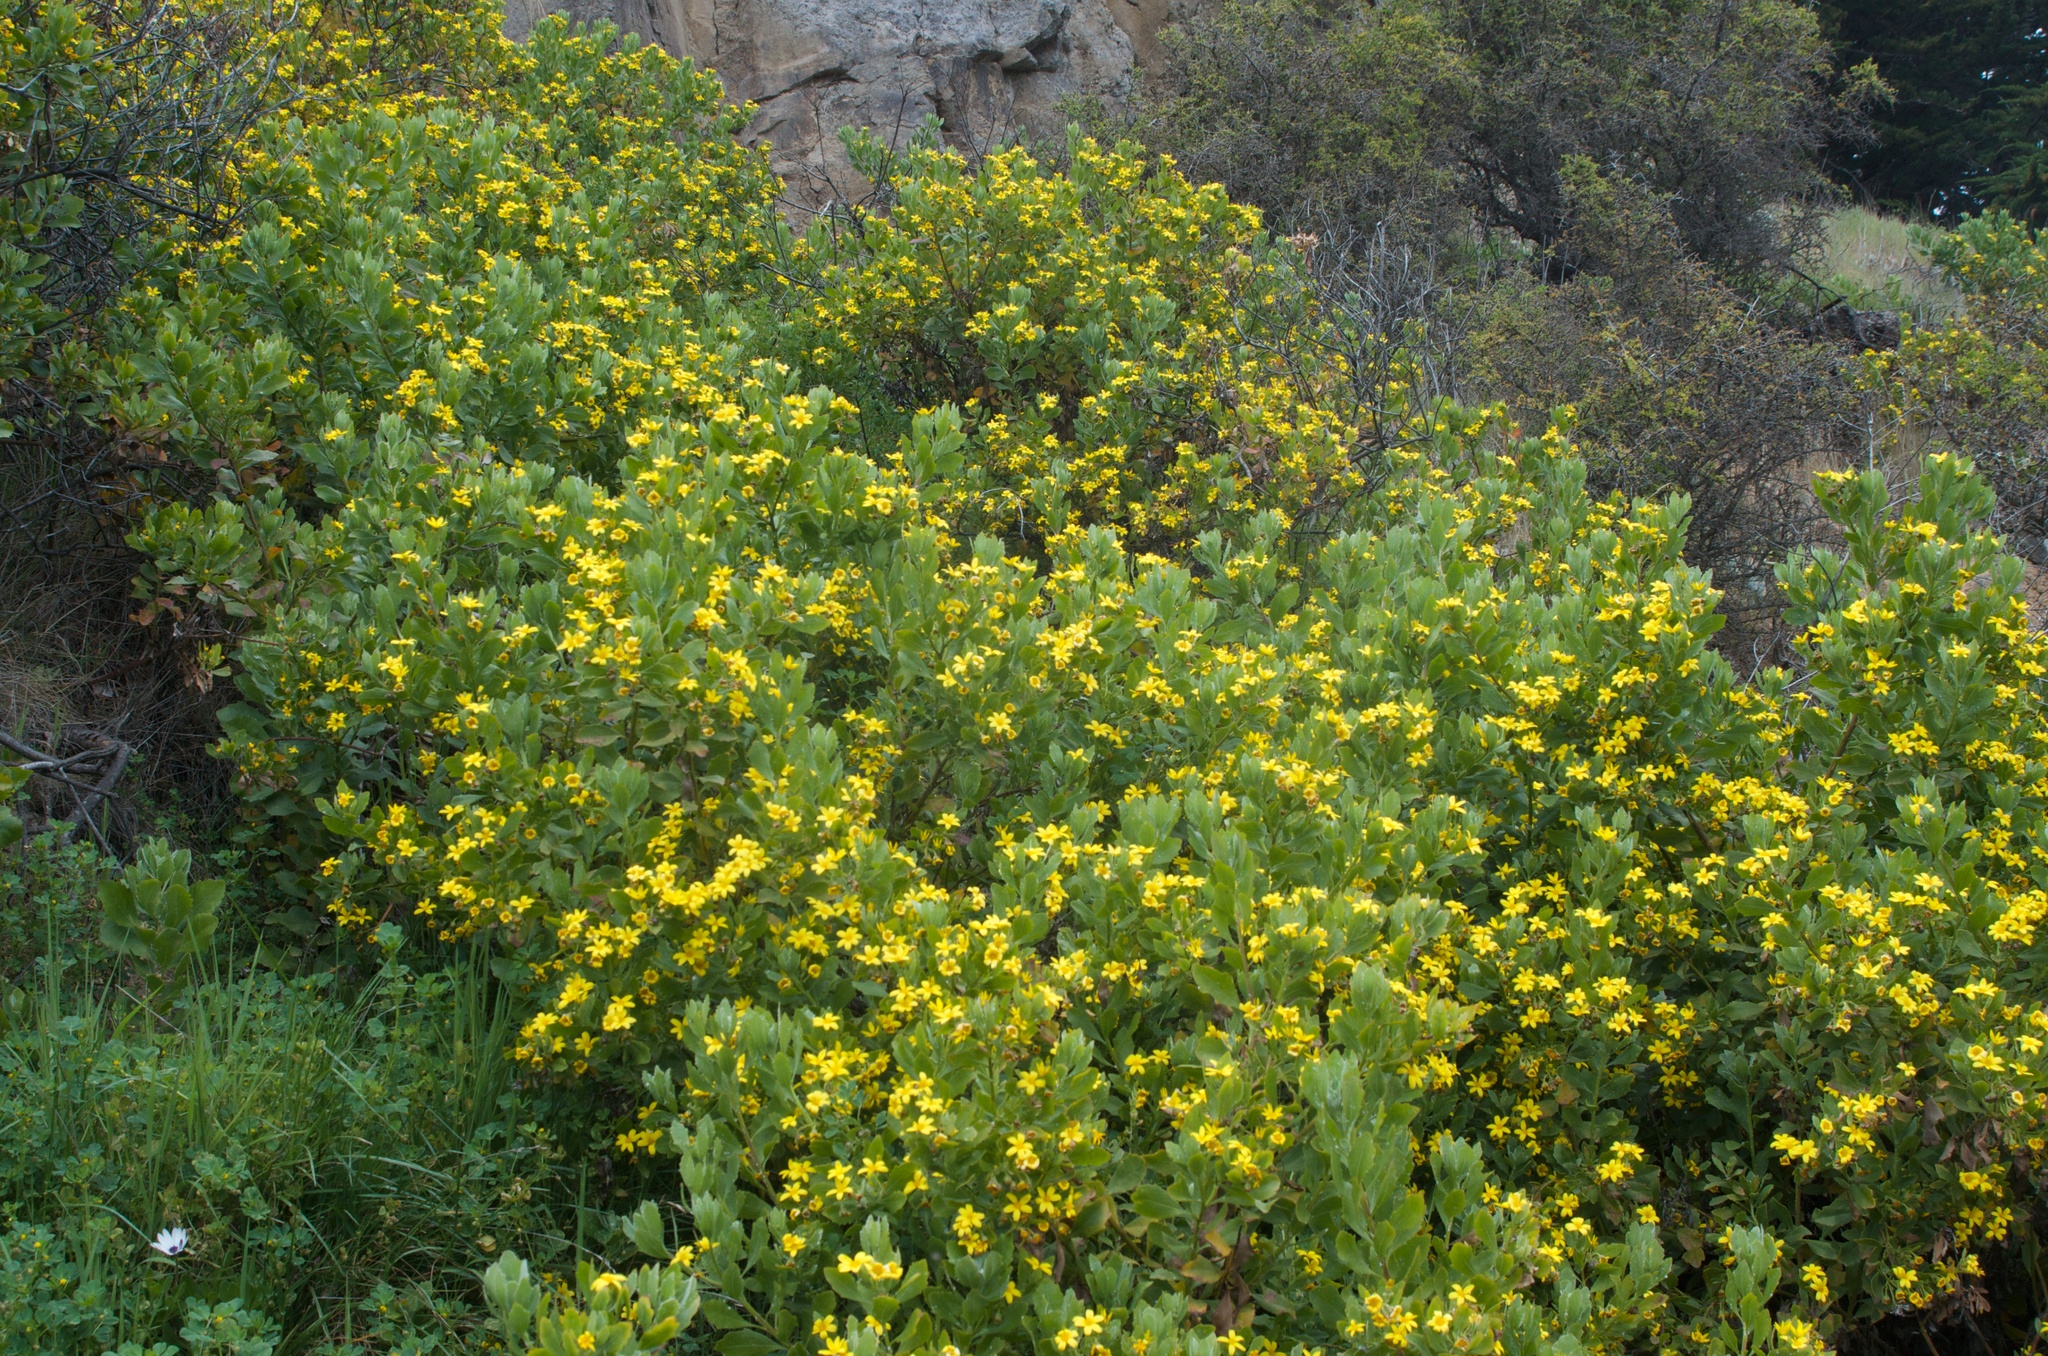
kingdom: Plantae
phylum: Tracheophyta
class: Magnoliopsida
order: Asterales
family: Asteraceae
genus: Osteospermum
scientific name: Osteospermum moniliferum
